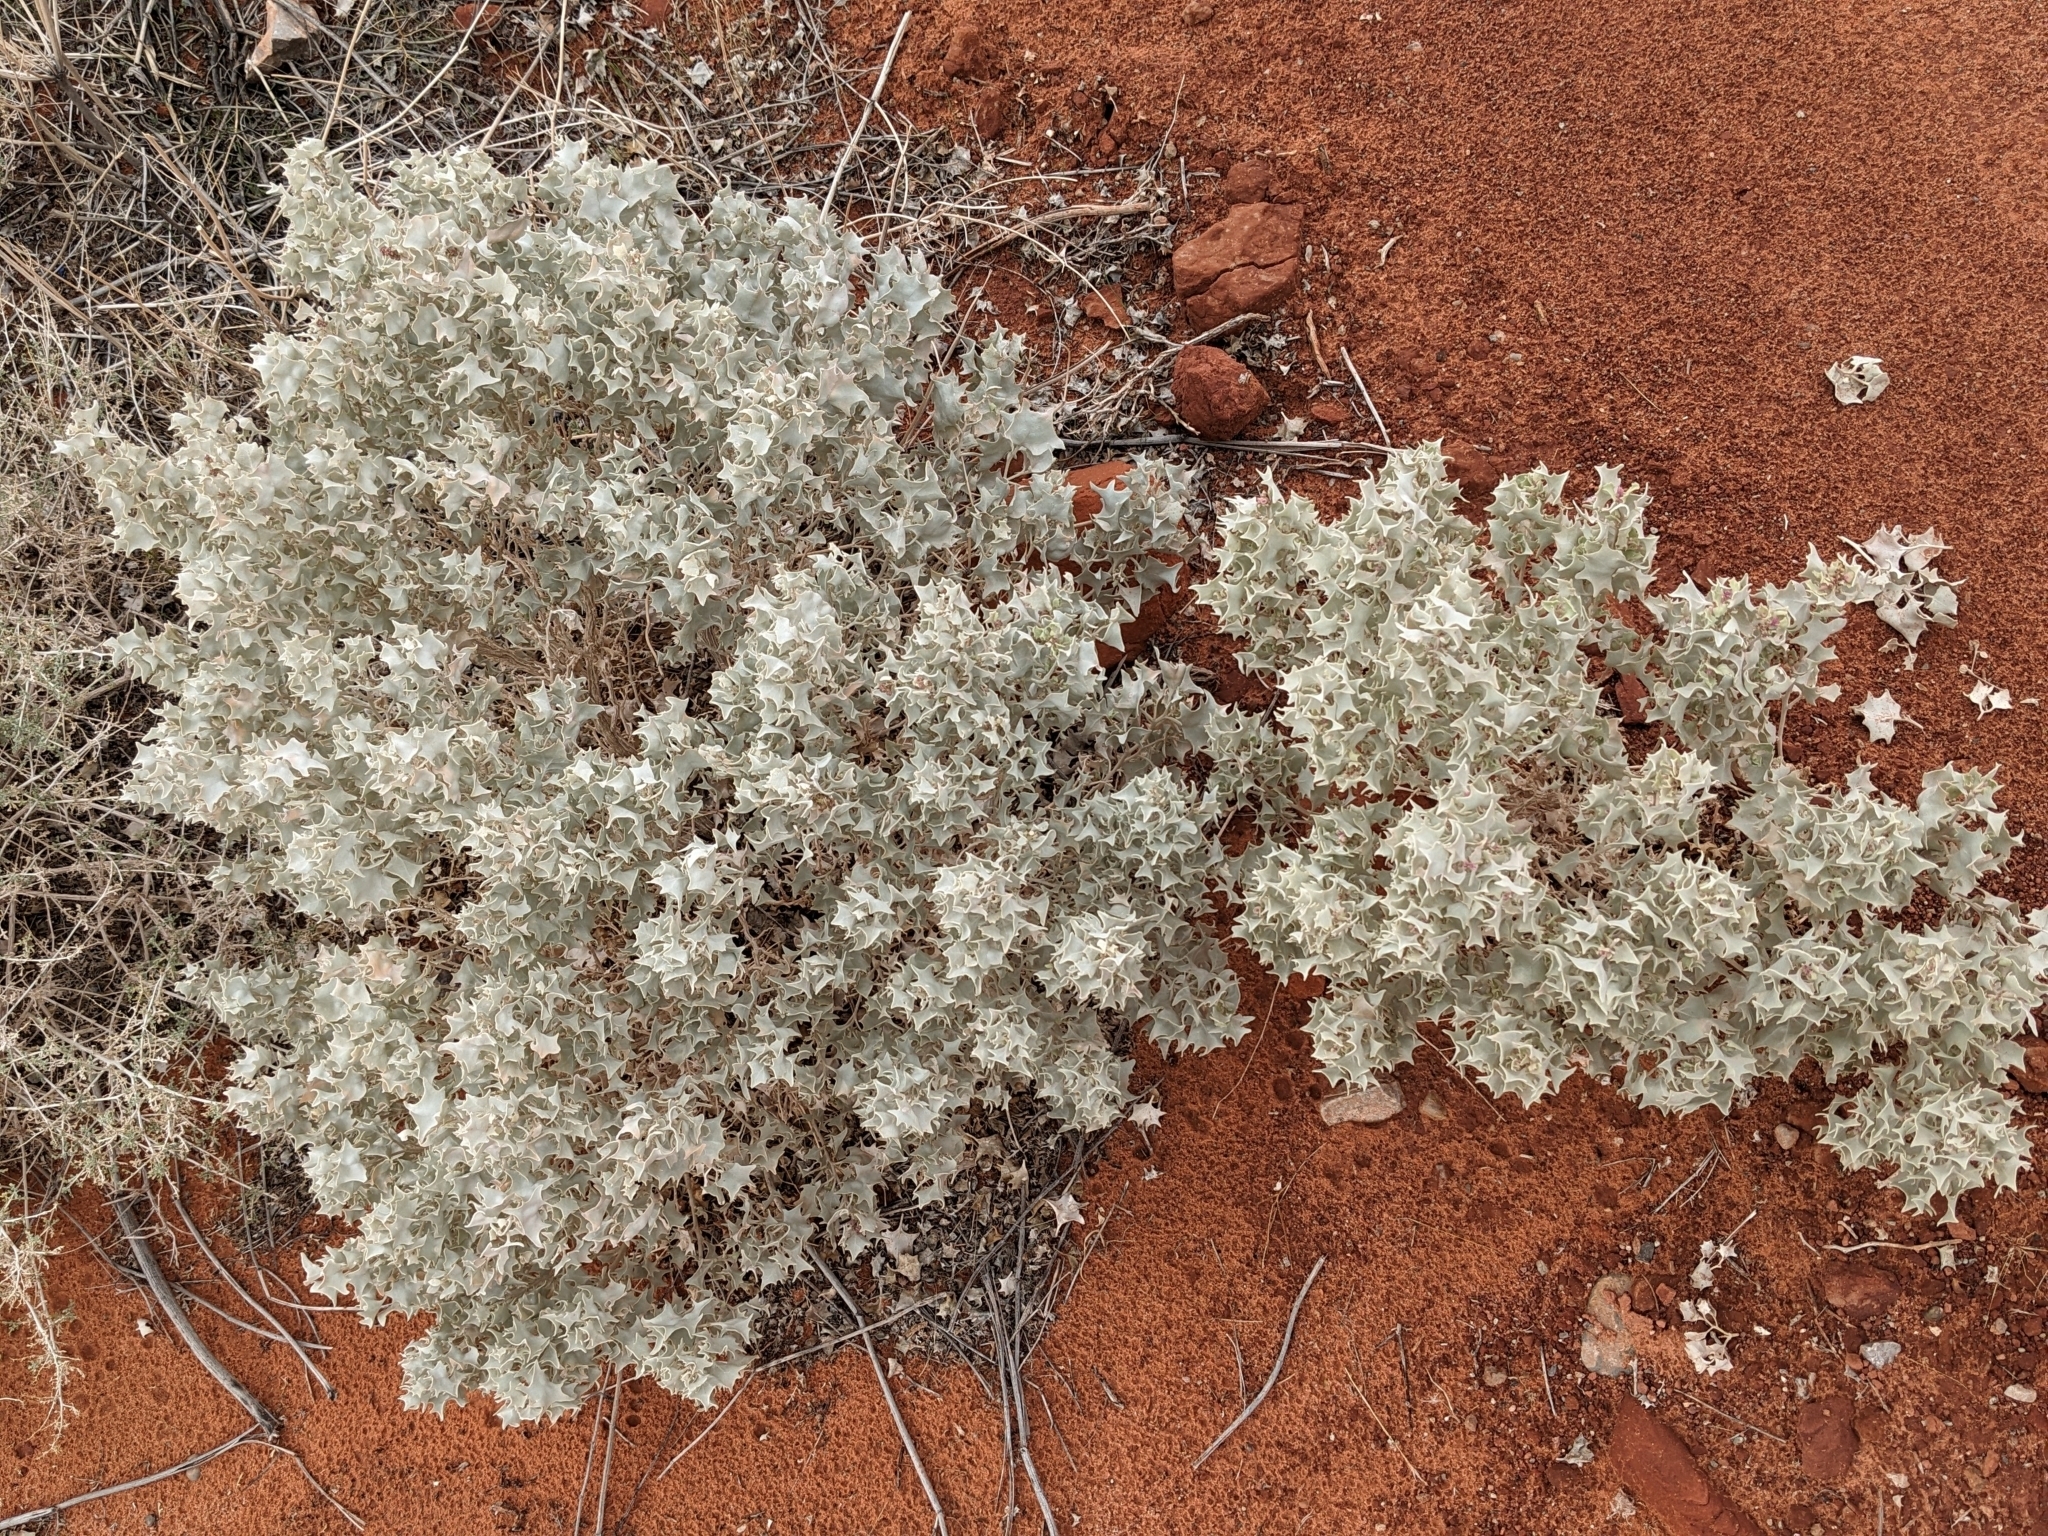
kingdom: Plantae
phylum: Tracheophyta
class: Magnoliopsida
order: Caryophyllales
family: Amaranthaceae
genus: Atriplex
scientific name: Atriplex hymenelytra
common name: Desert-holly
